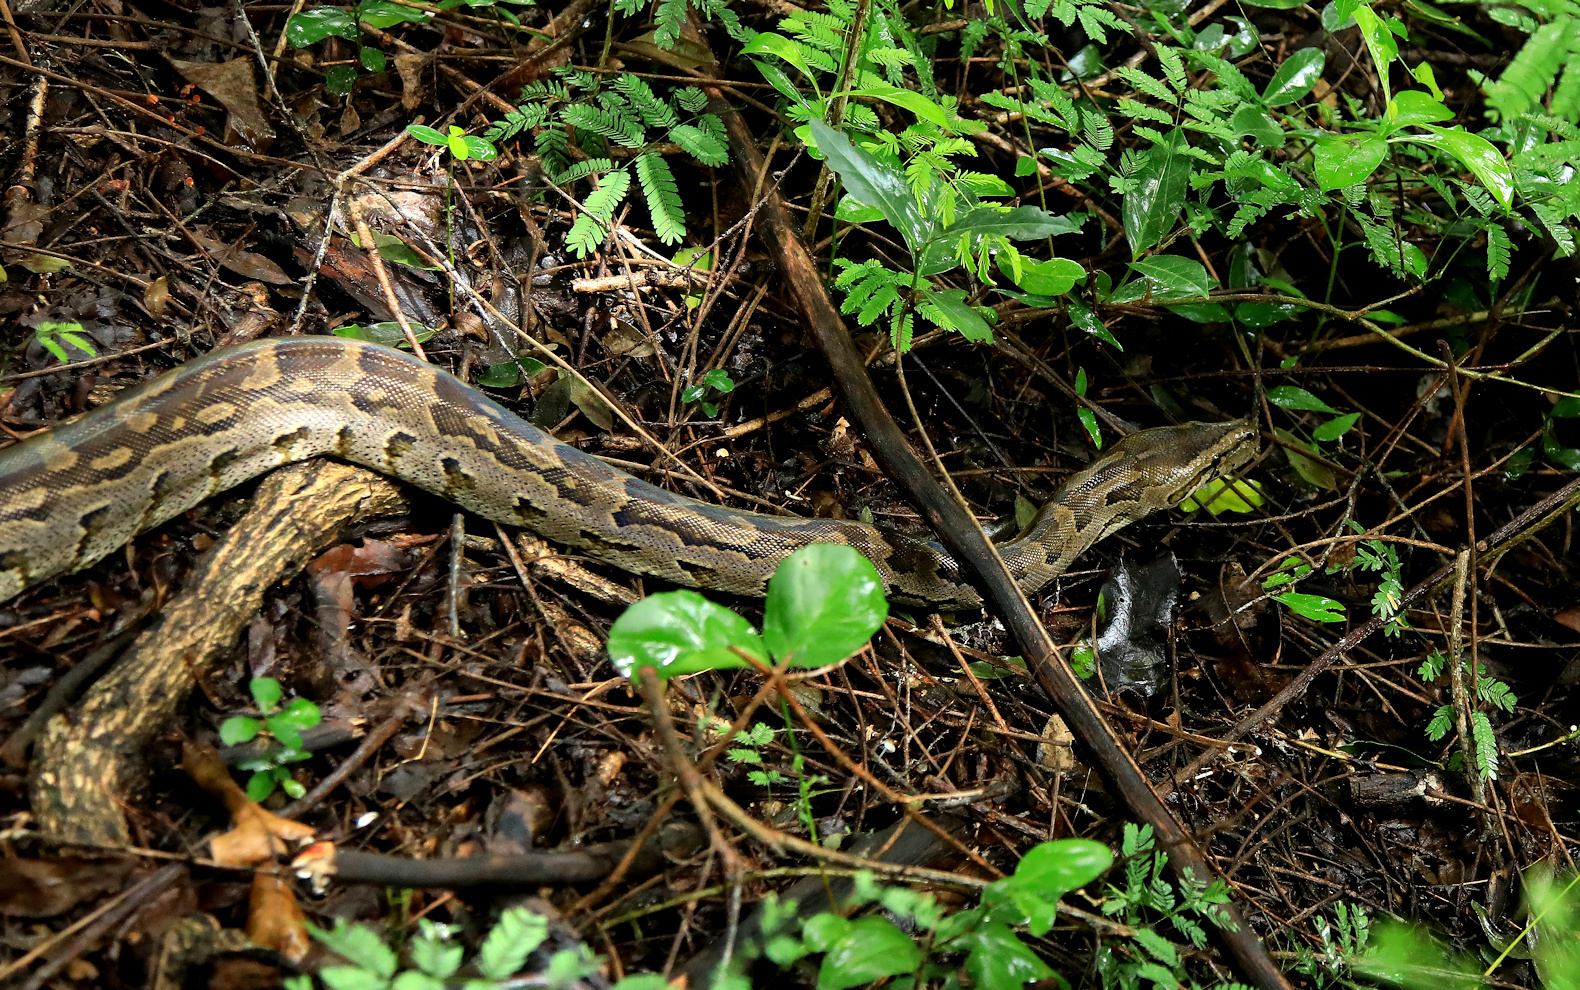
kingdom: Animalia
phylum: Chordata
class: Squamata
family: Pythonidae
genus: Python
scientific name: Python natalensis
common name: Southern african rock python
